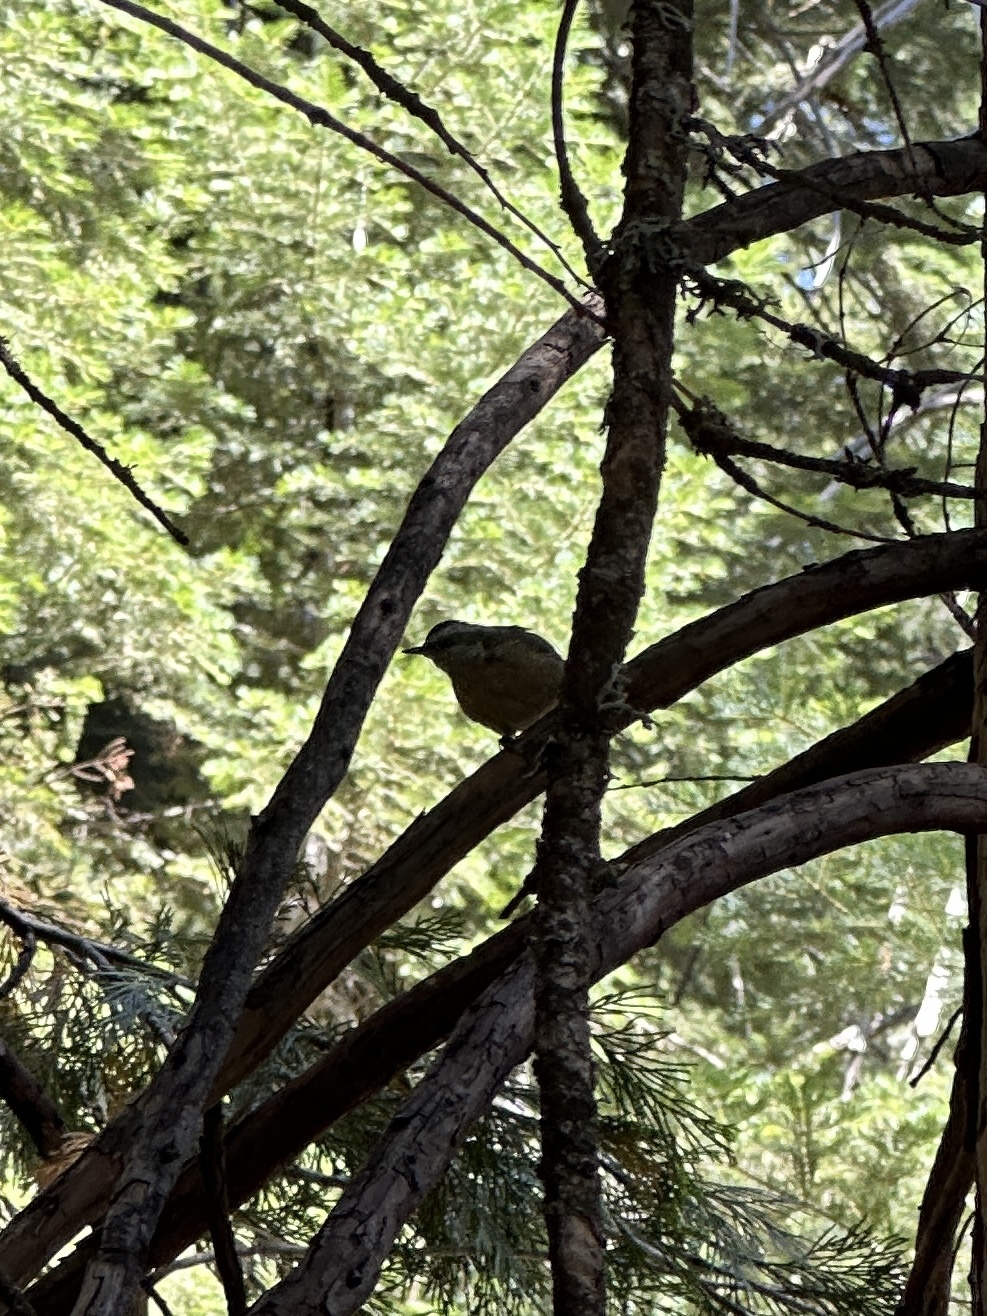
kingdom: Animalia
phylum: Chordata
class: Aves
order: Passeriformes
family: Sittidae
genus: Sitta
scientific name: Sitta canadensis
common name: Red-breasted nuthatch
